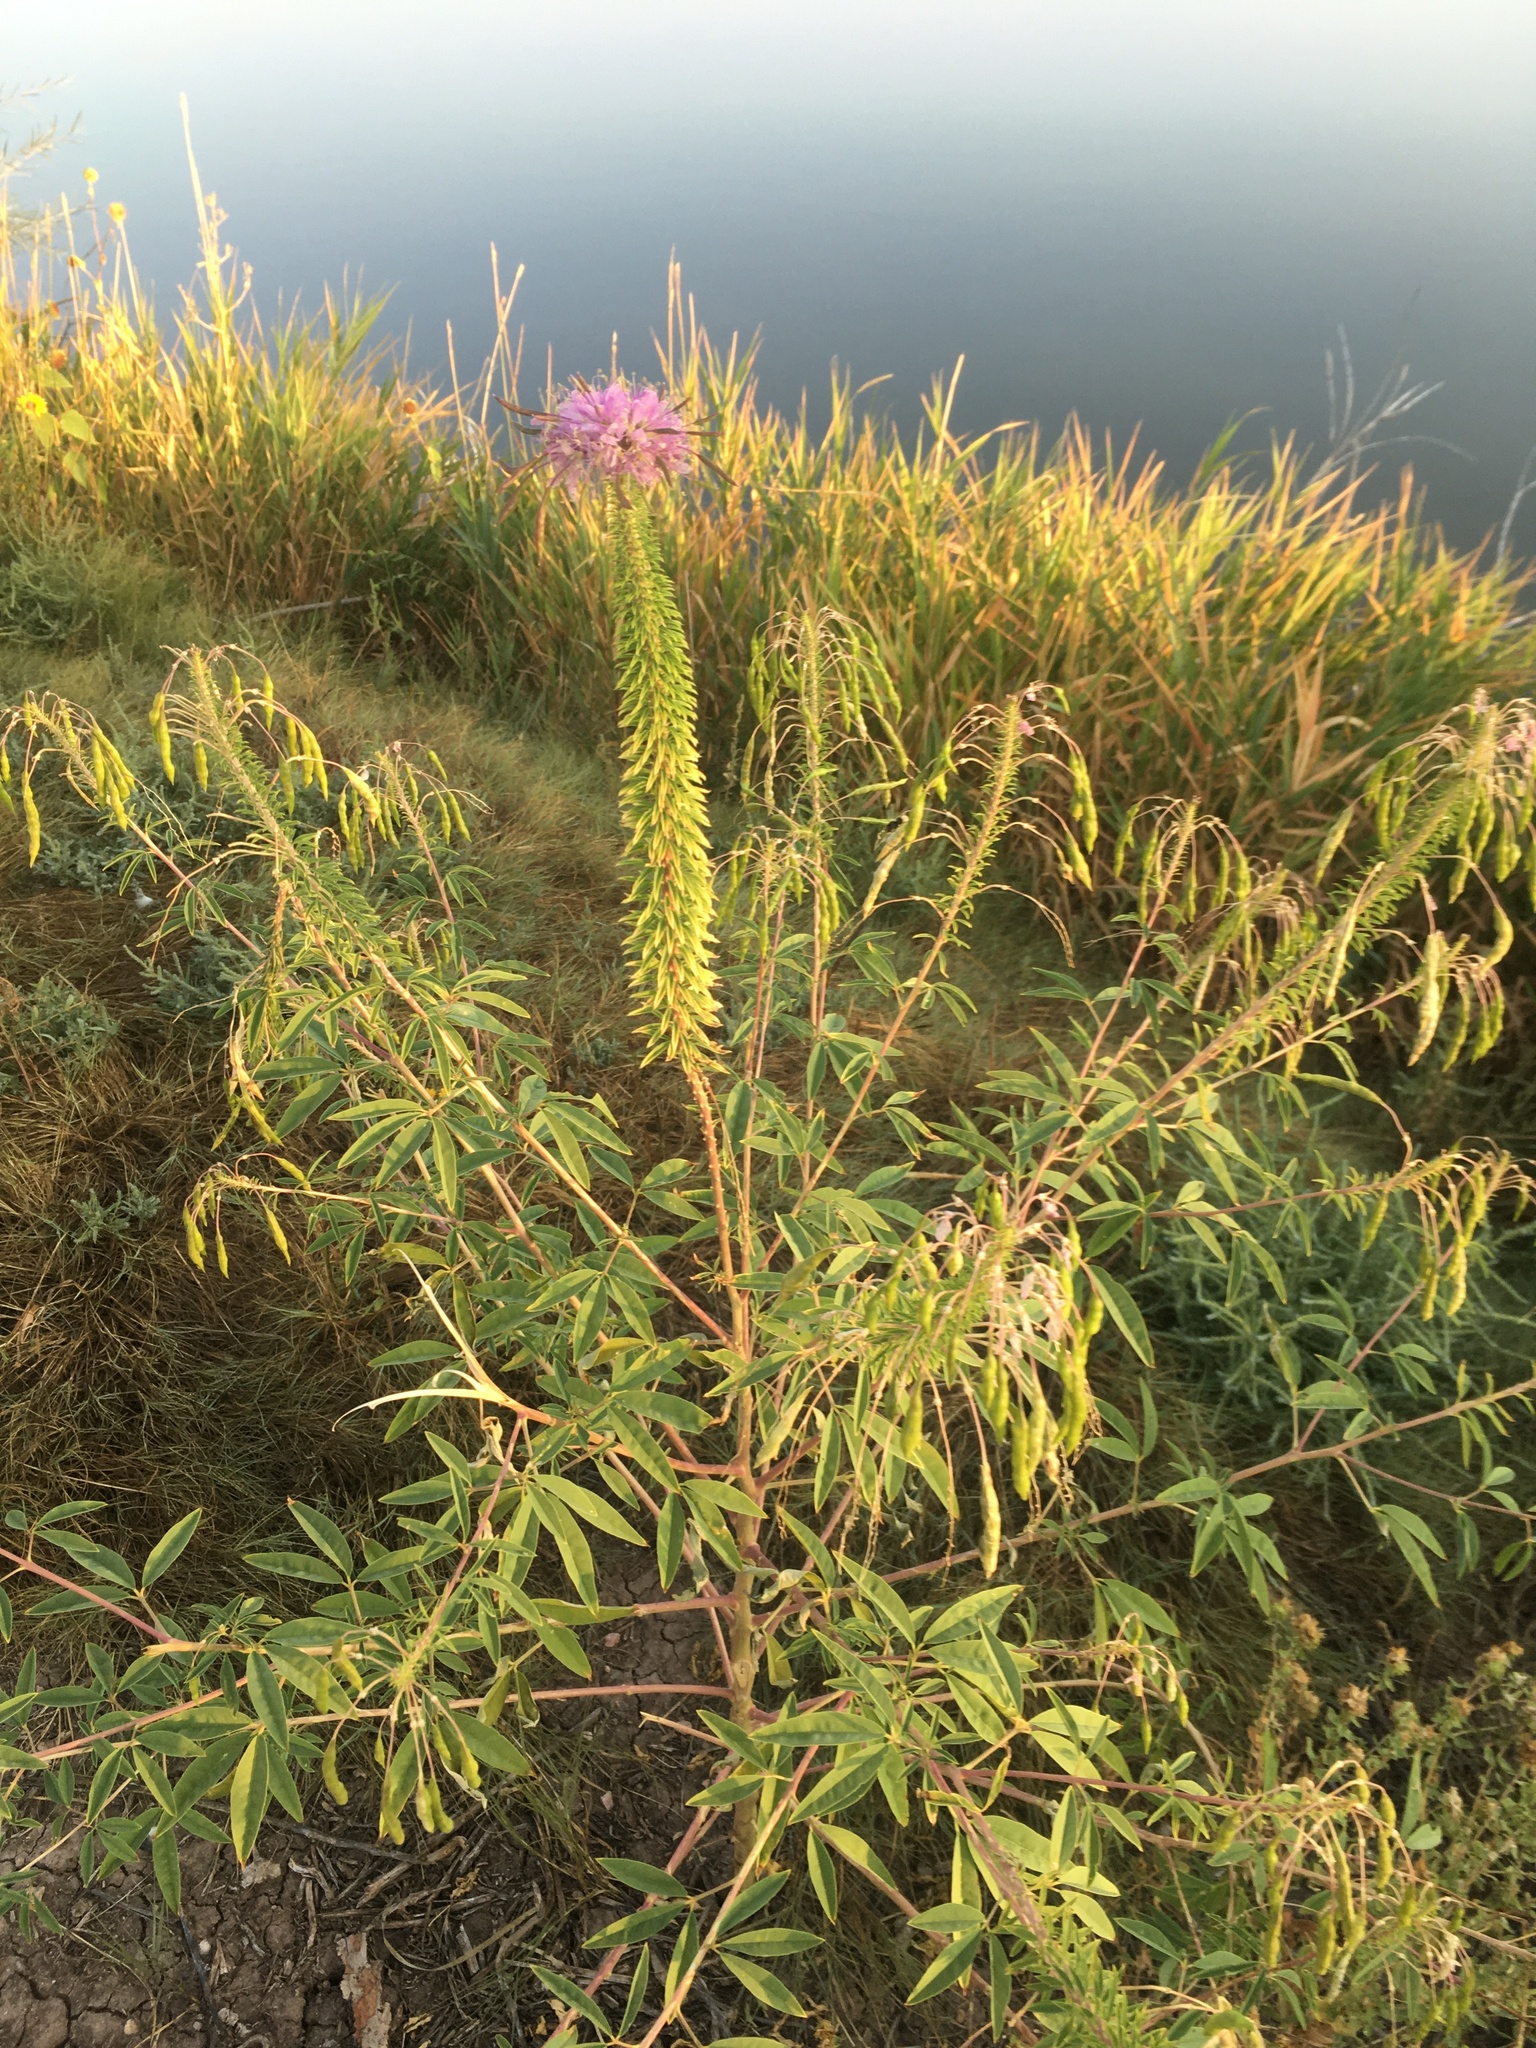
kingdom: Plantae
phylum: Tracheophyta
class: Magnoliopsida
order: Brassicales
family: Cleomaceae
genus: Cleomella
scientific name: Cleomella serrulata
